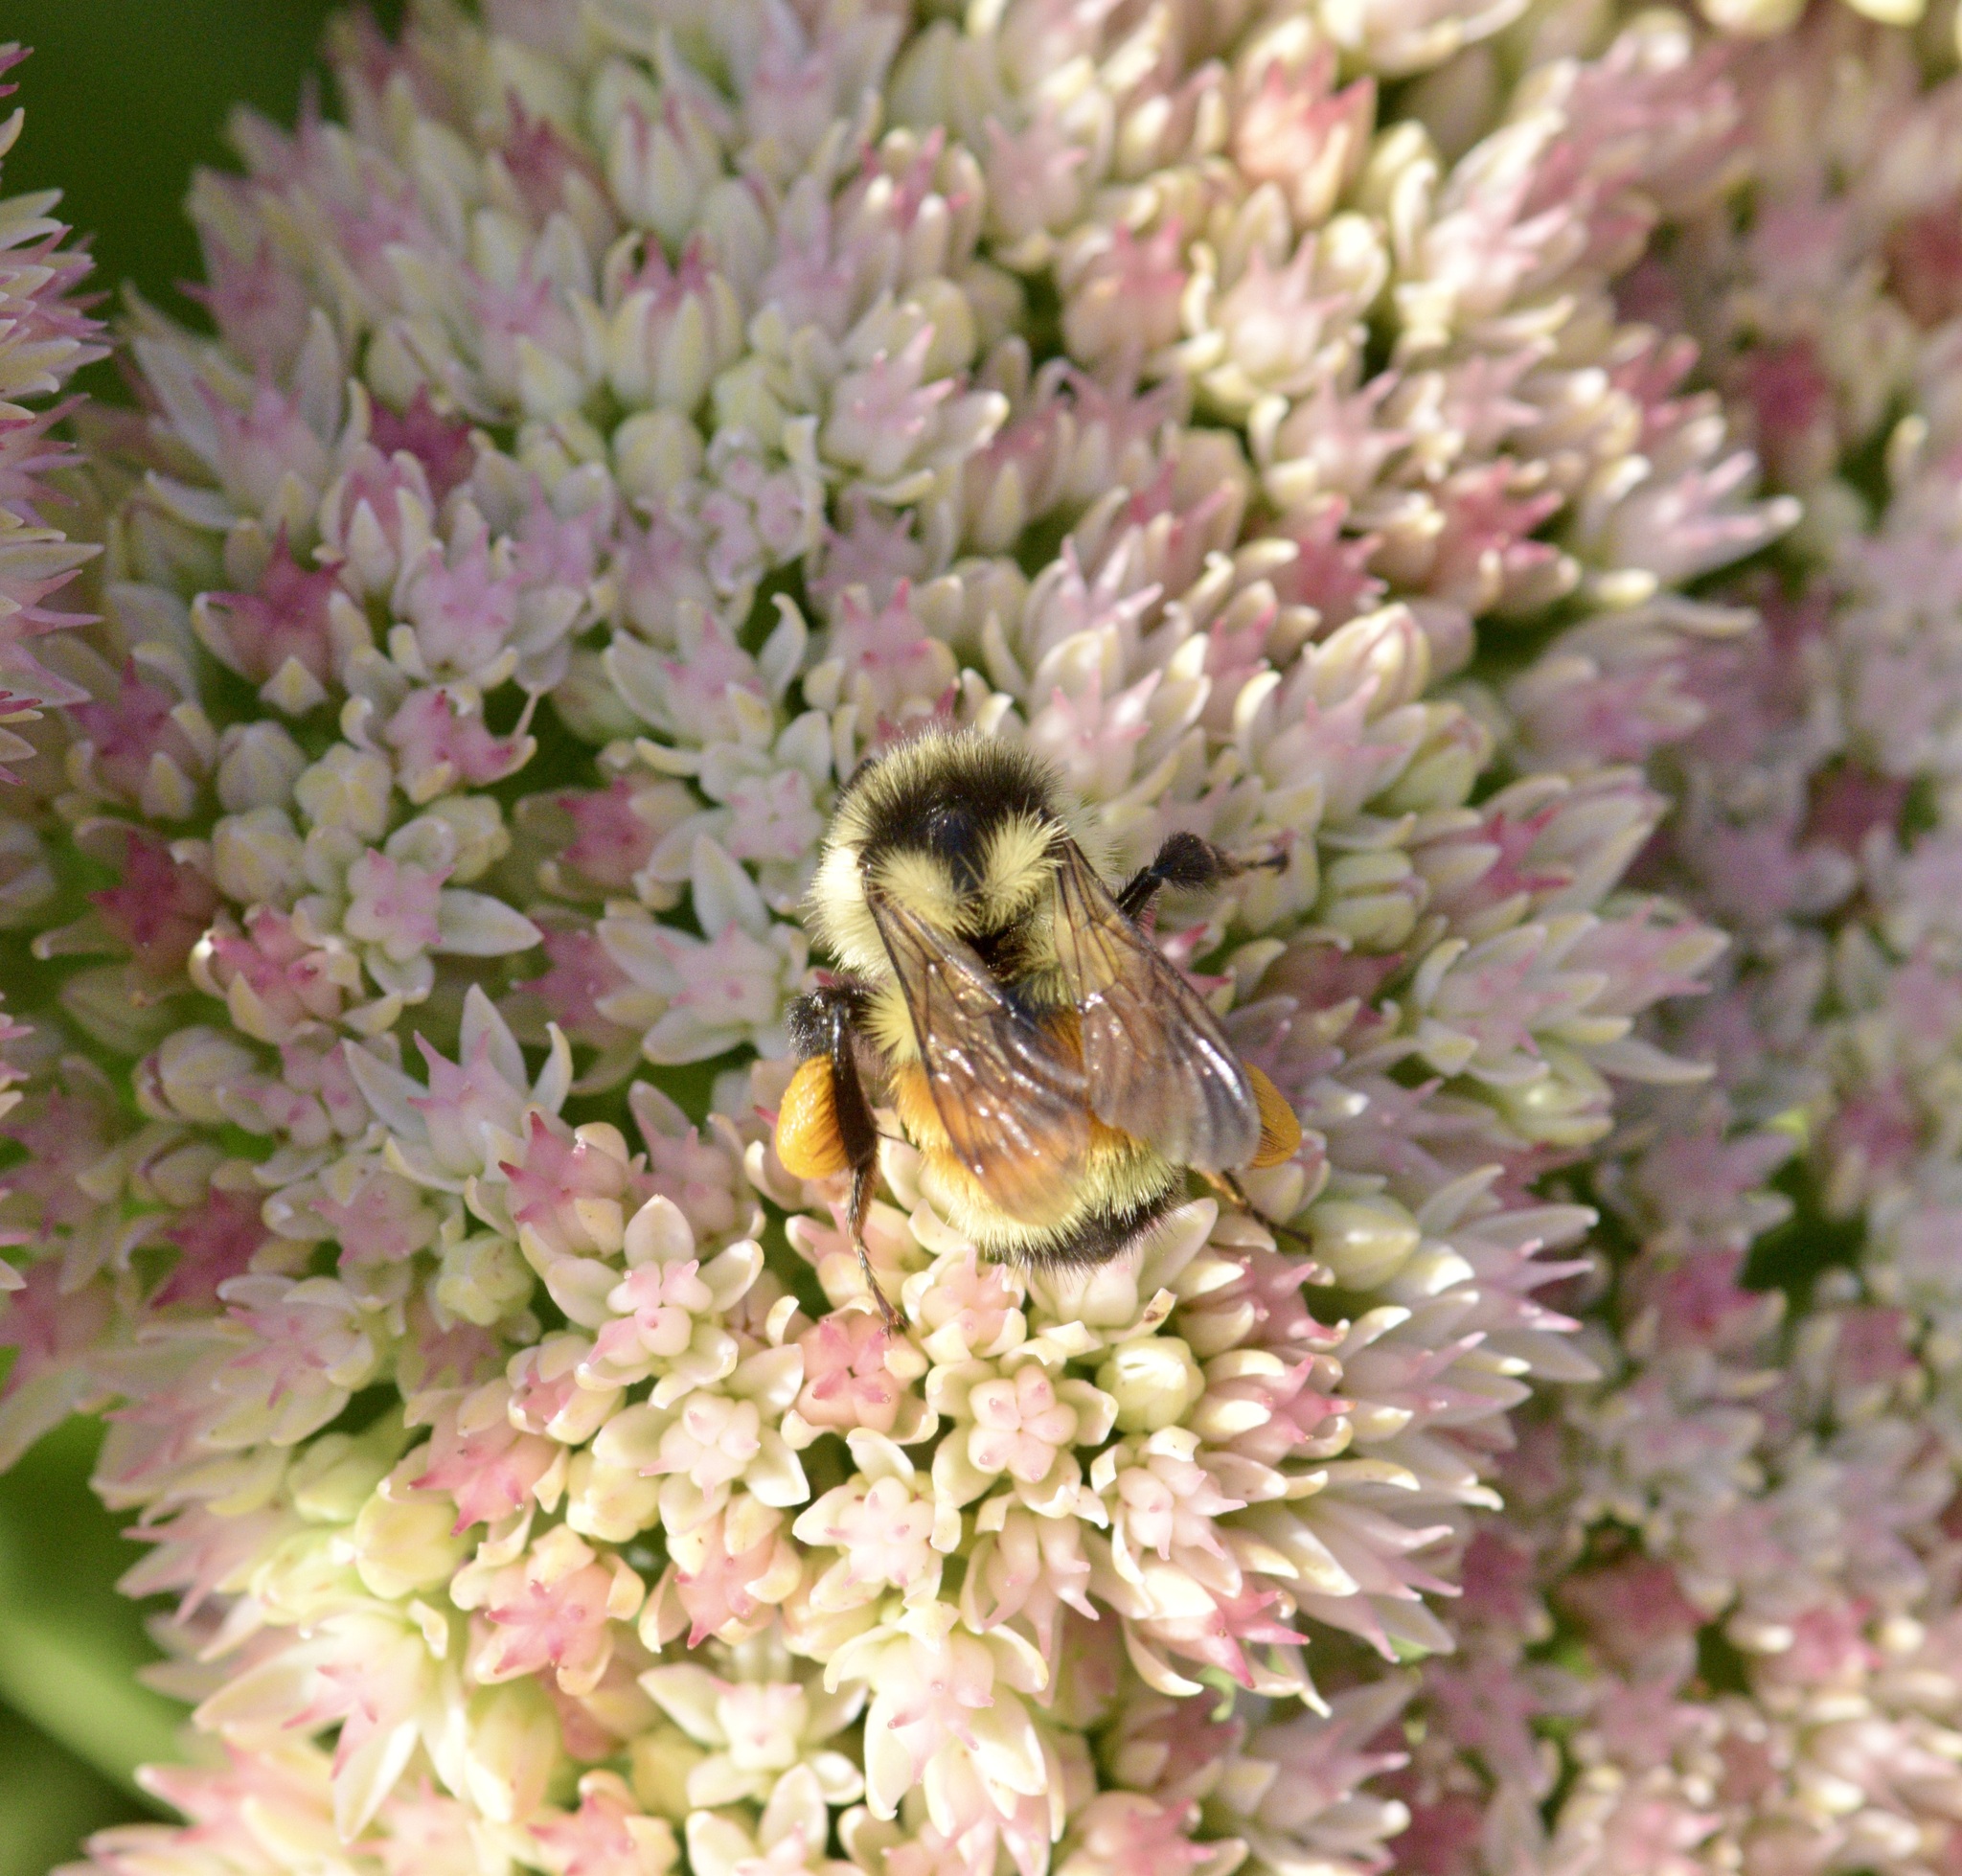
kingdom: Animalia
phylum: Arthropoda
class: Insecta
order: Hymenoptera
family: Apidae
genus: Bombus
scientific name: Bombus ternarius
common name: Tri-colored bumble bee
